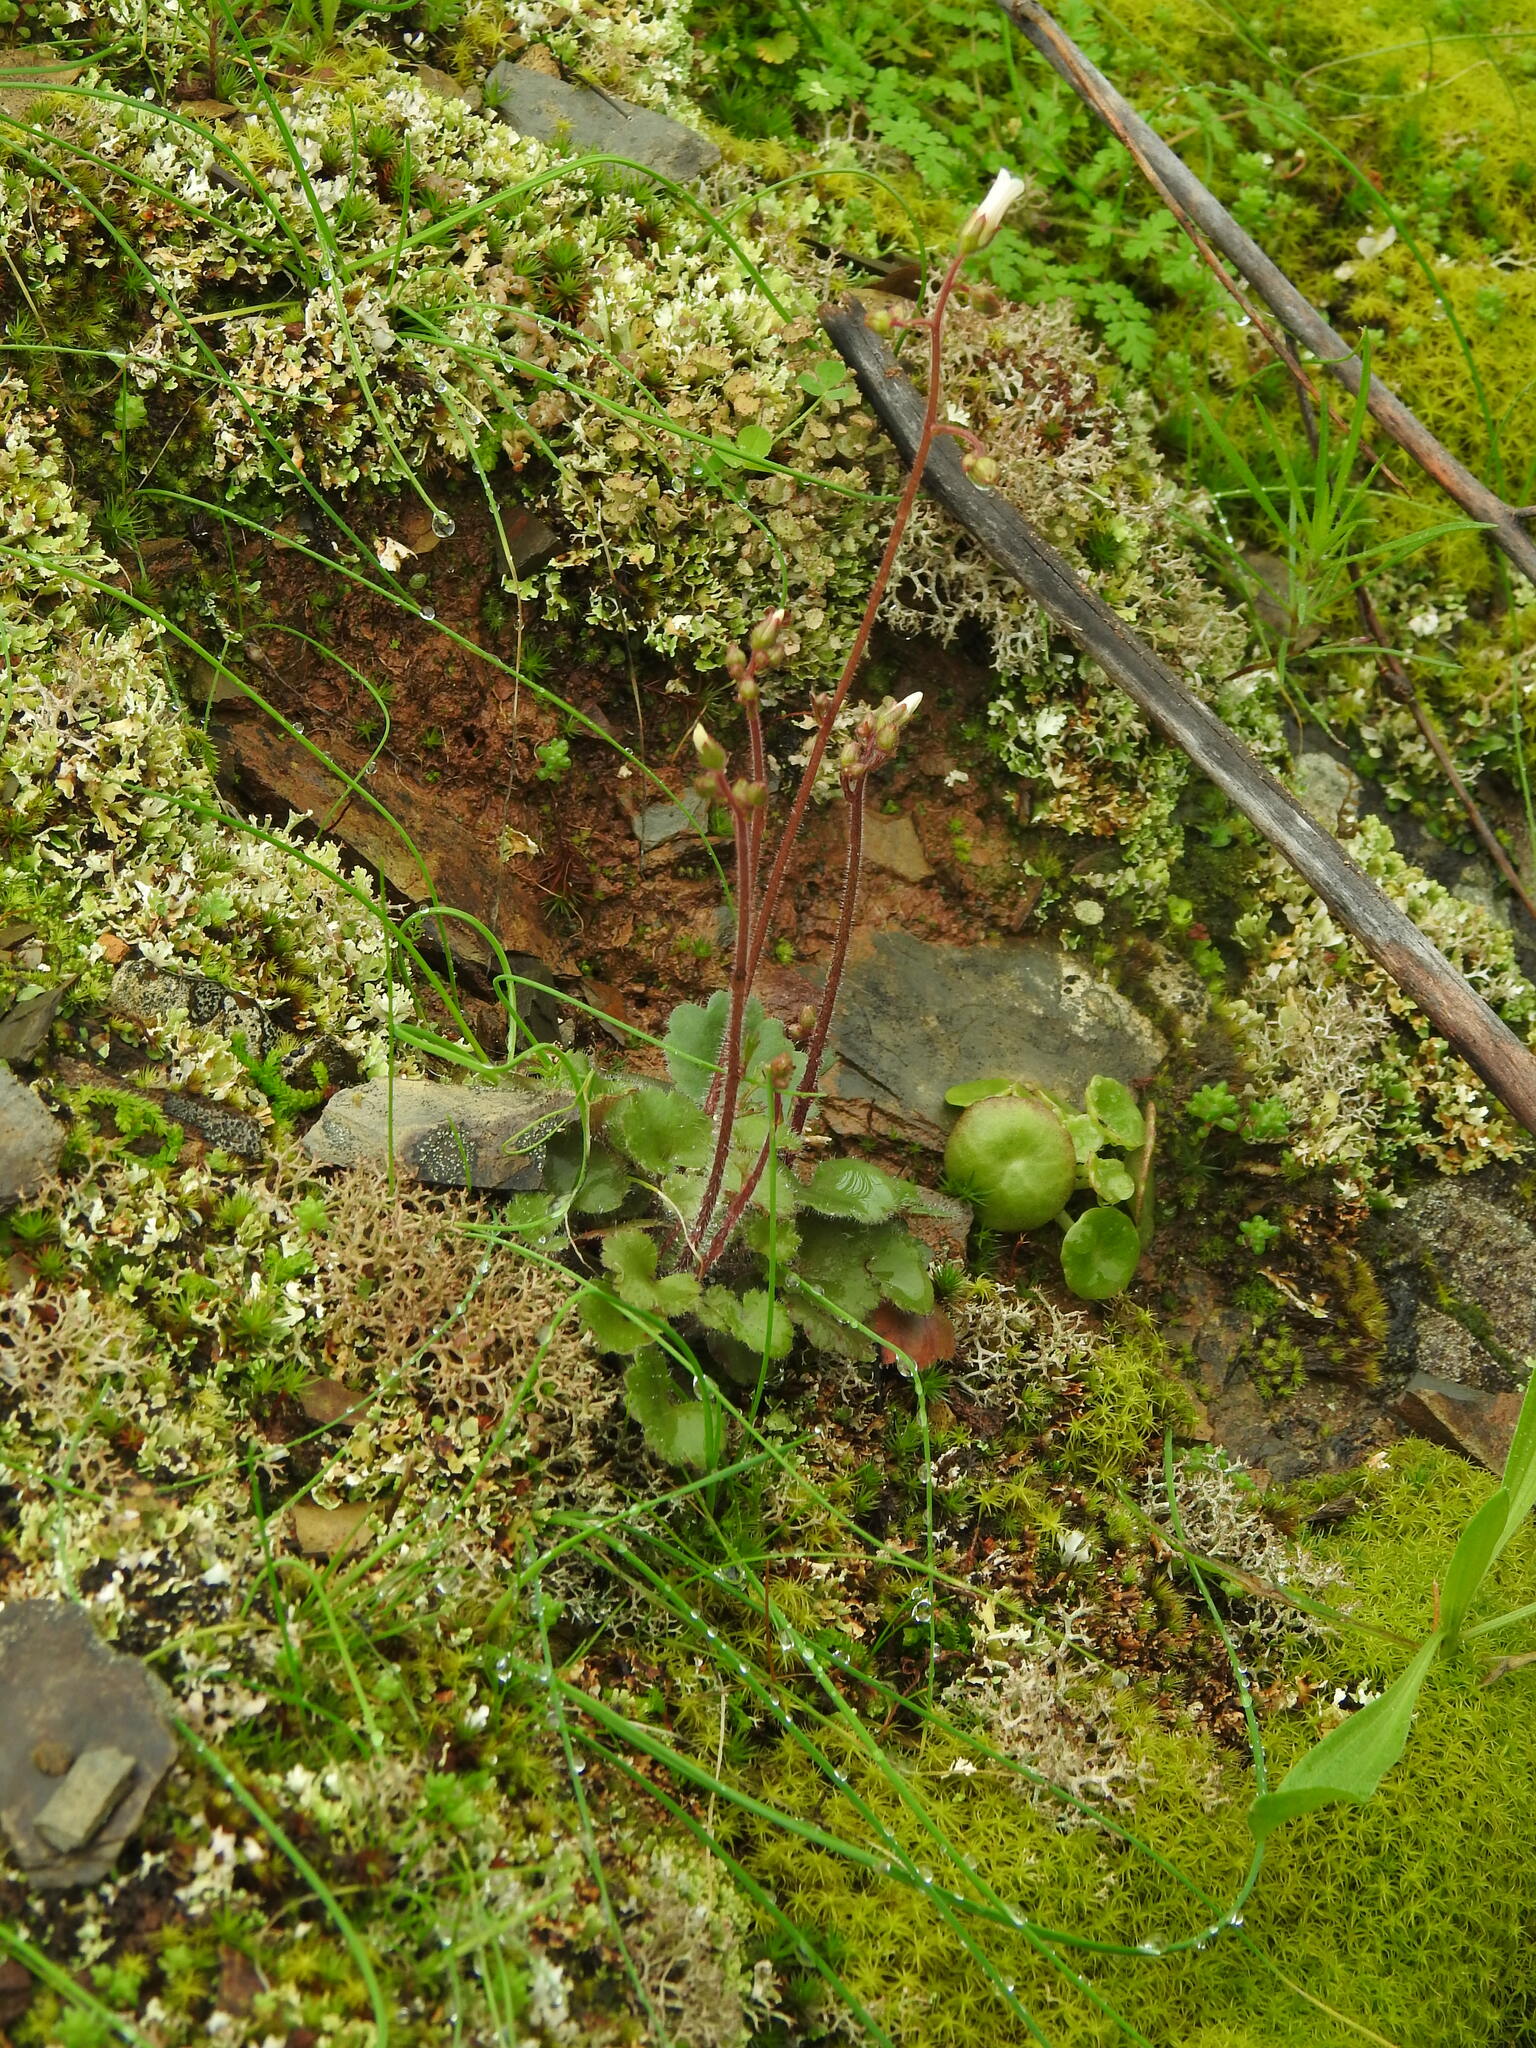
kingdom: Plantae
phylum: Tracheophyta
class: Magnoliopsida
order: Saxifragales
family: Saxifragaceae
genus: Saxifraga
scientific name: Saxifraga granulata
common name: Meadow saxifrage
